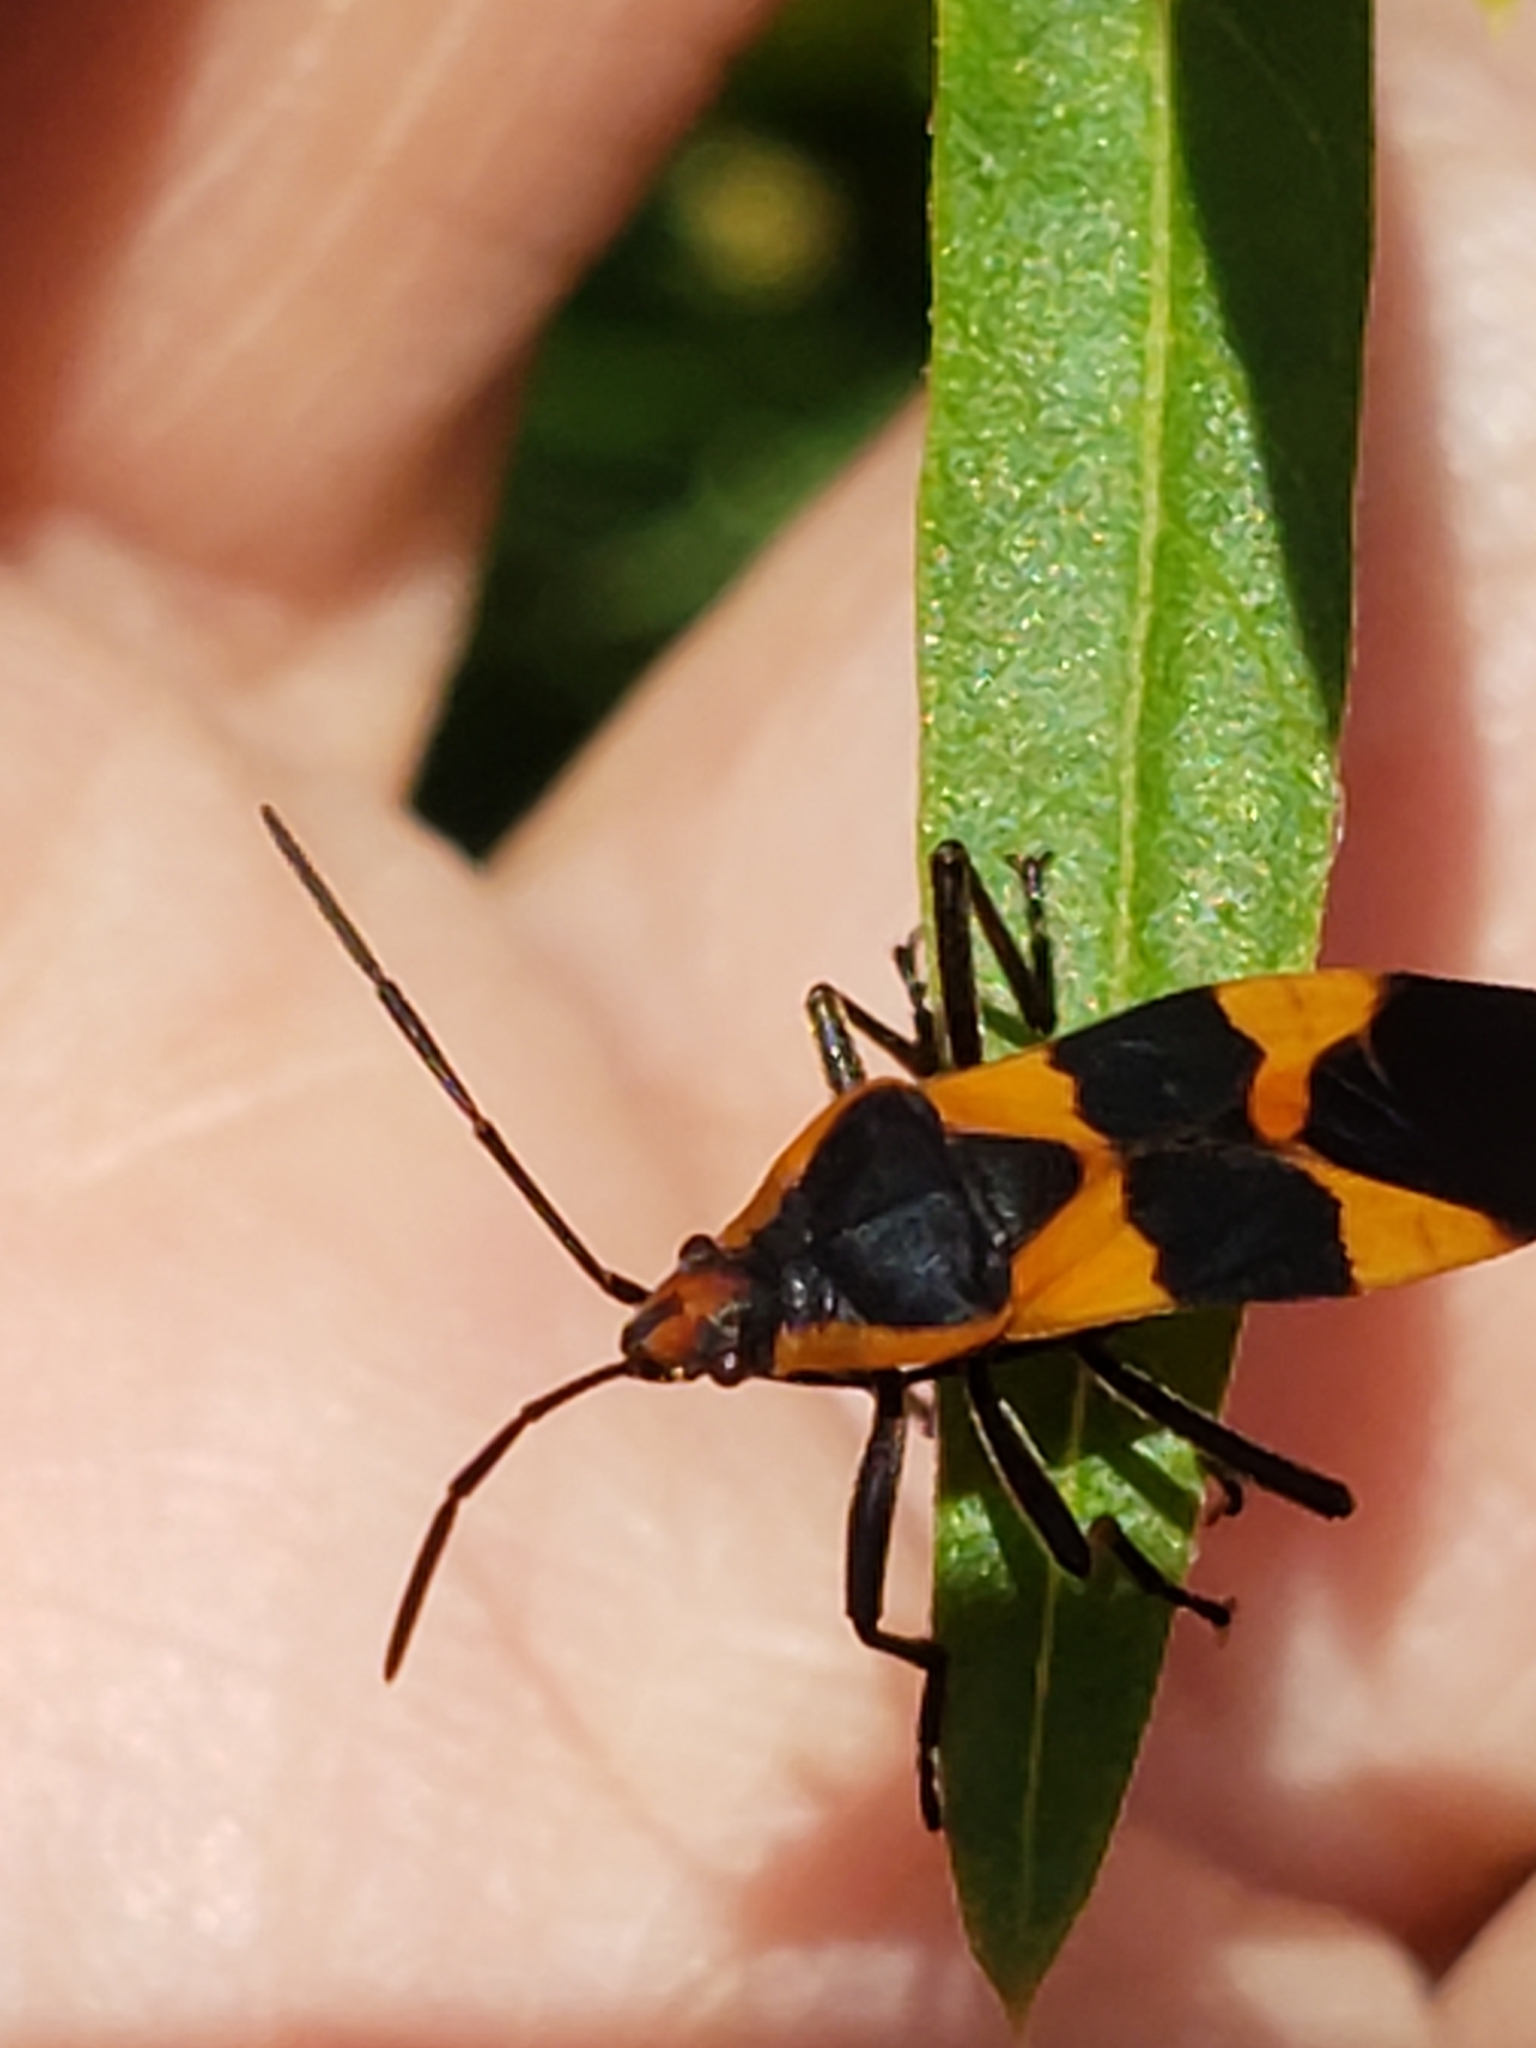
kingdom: Animalia
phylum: Arthropoda
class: Insecta
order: Hemiptera
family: Lygaeidae
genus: Oncopeltus
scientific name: Oncopeltus fasciatus
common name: Large milkweed bug
